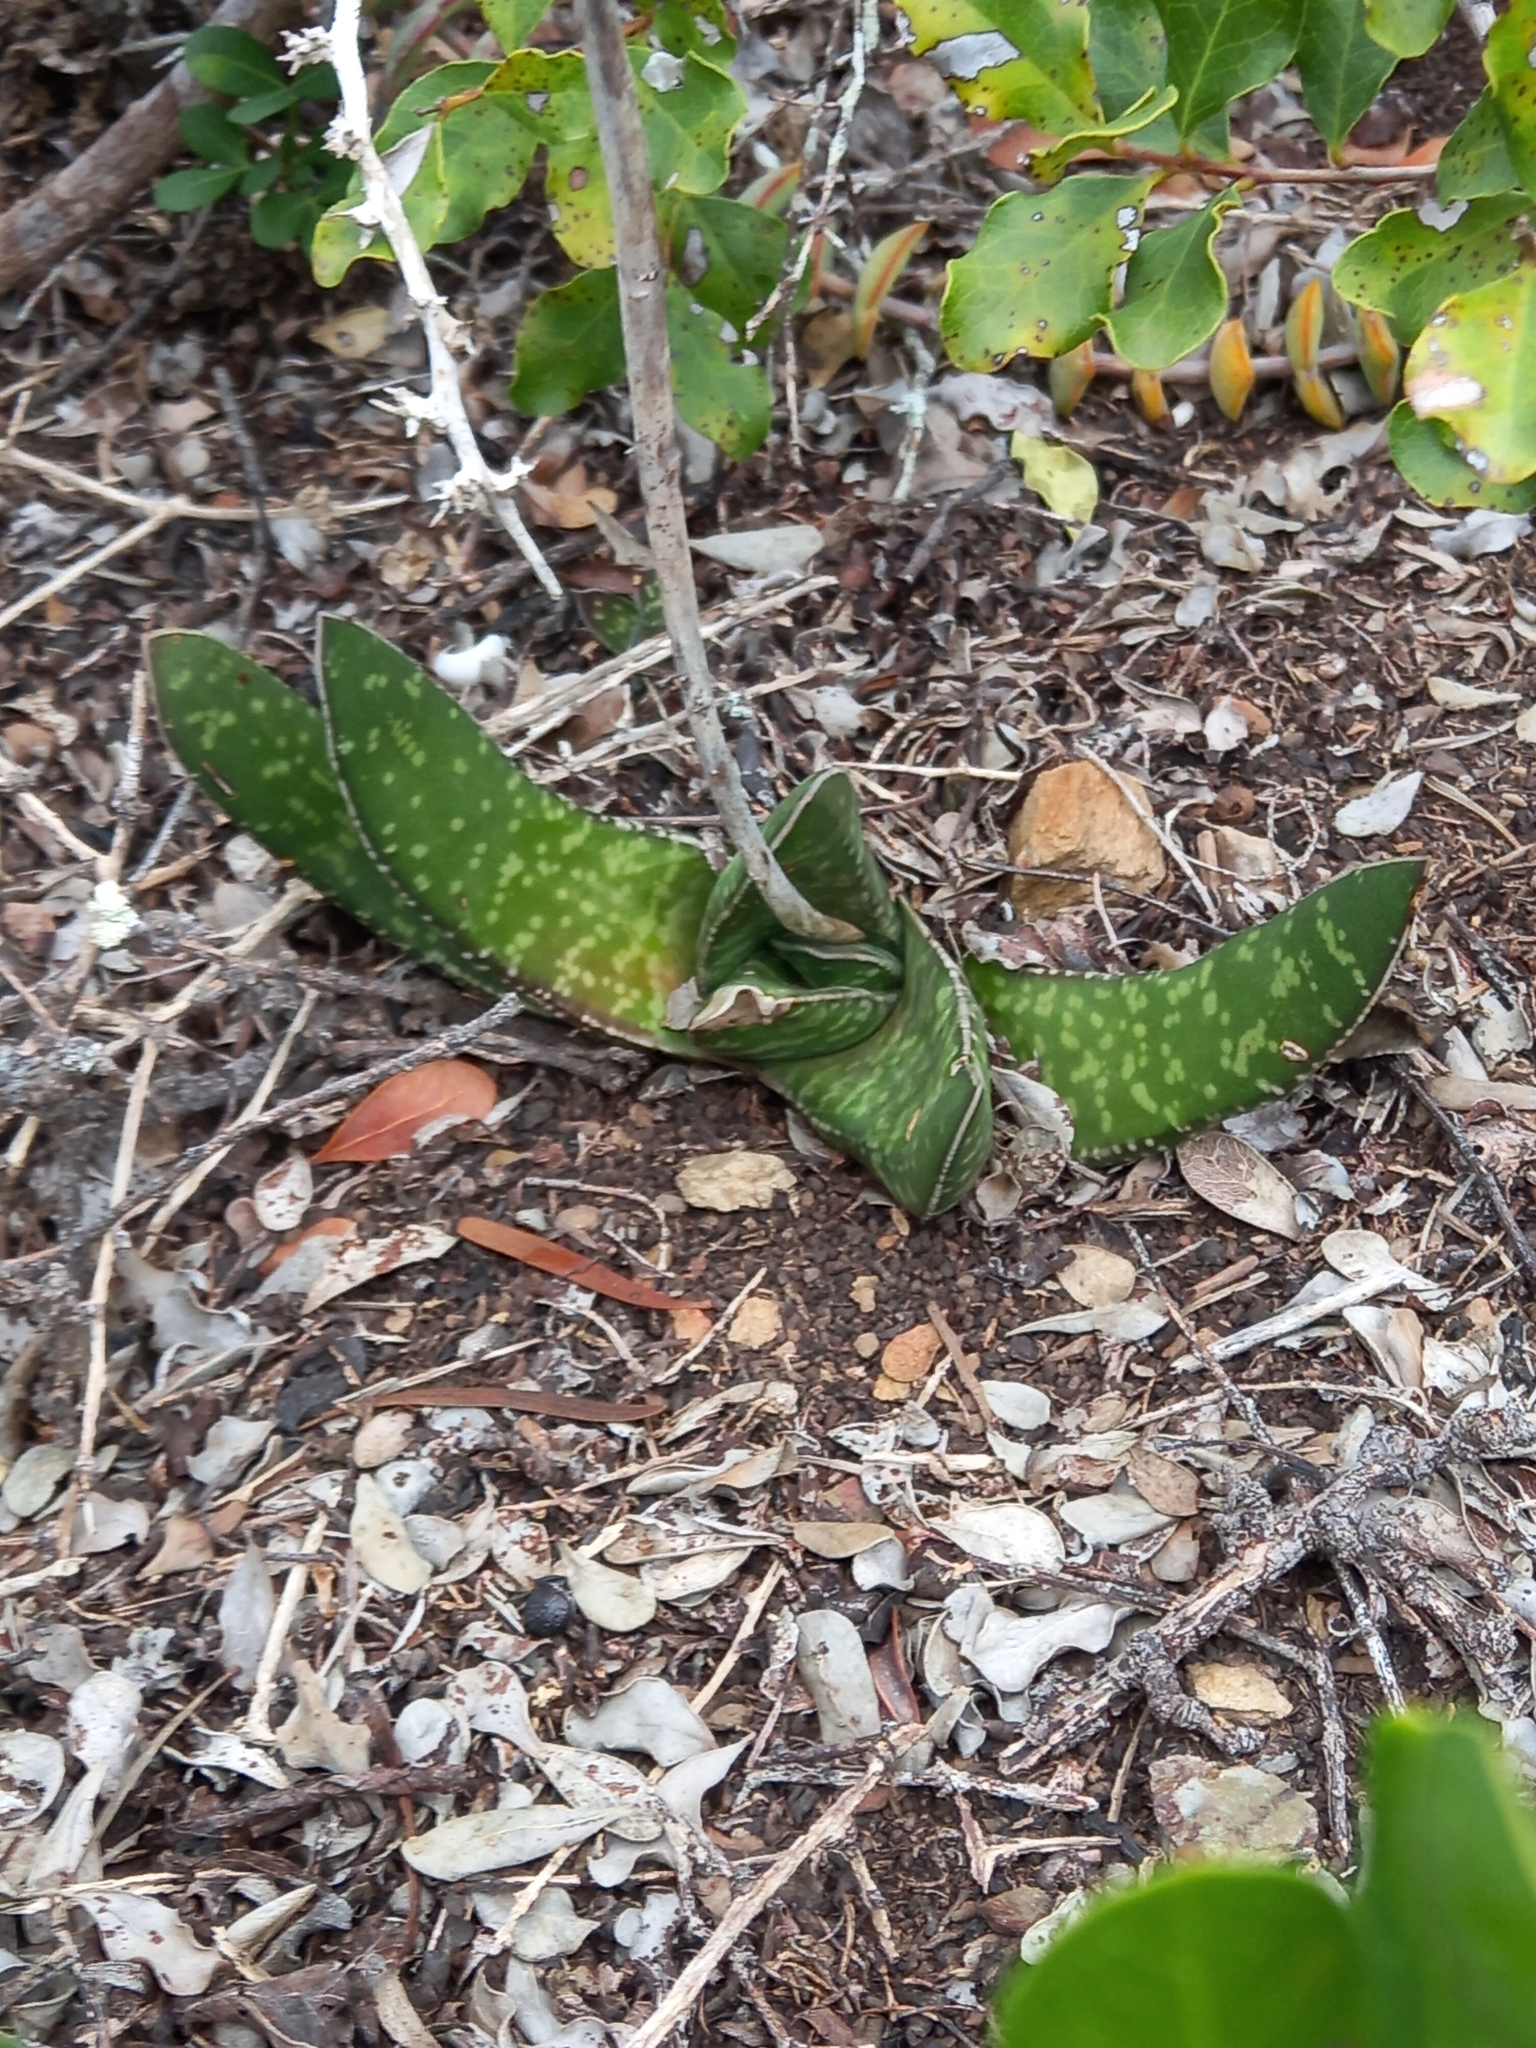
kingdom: Plantae
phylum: Tracheophyta
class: Liliopsida
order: Asparagales
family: Asphodelaceae
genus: Gasteria
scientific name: Gasteria carinata
